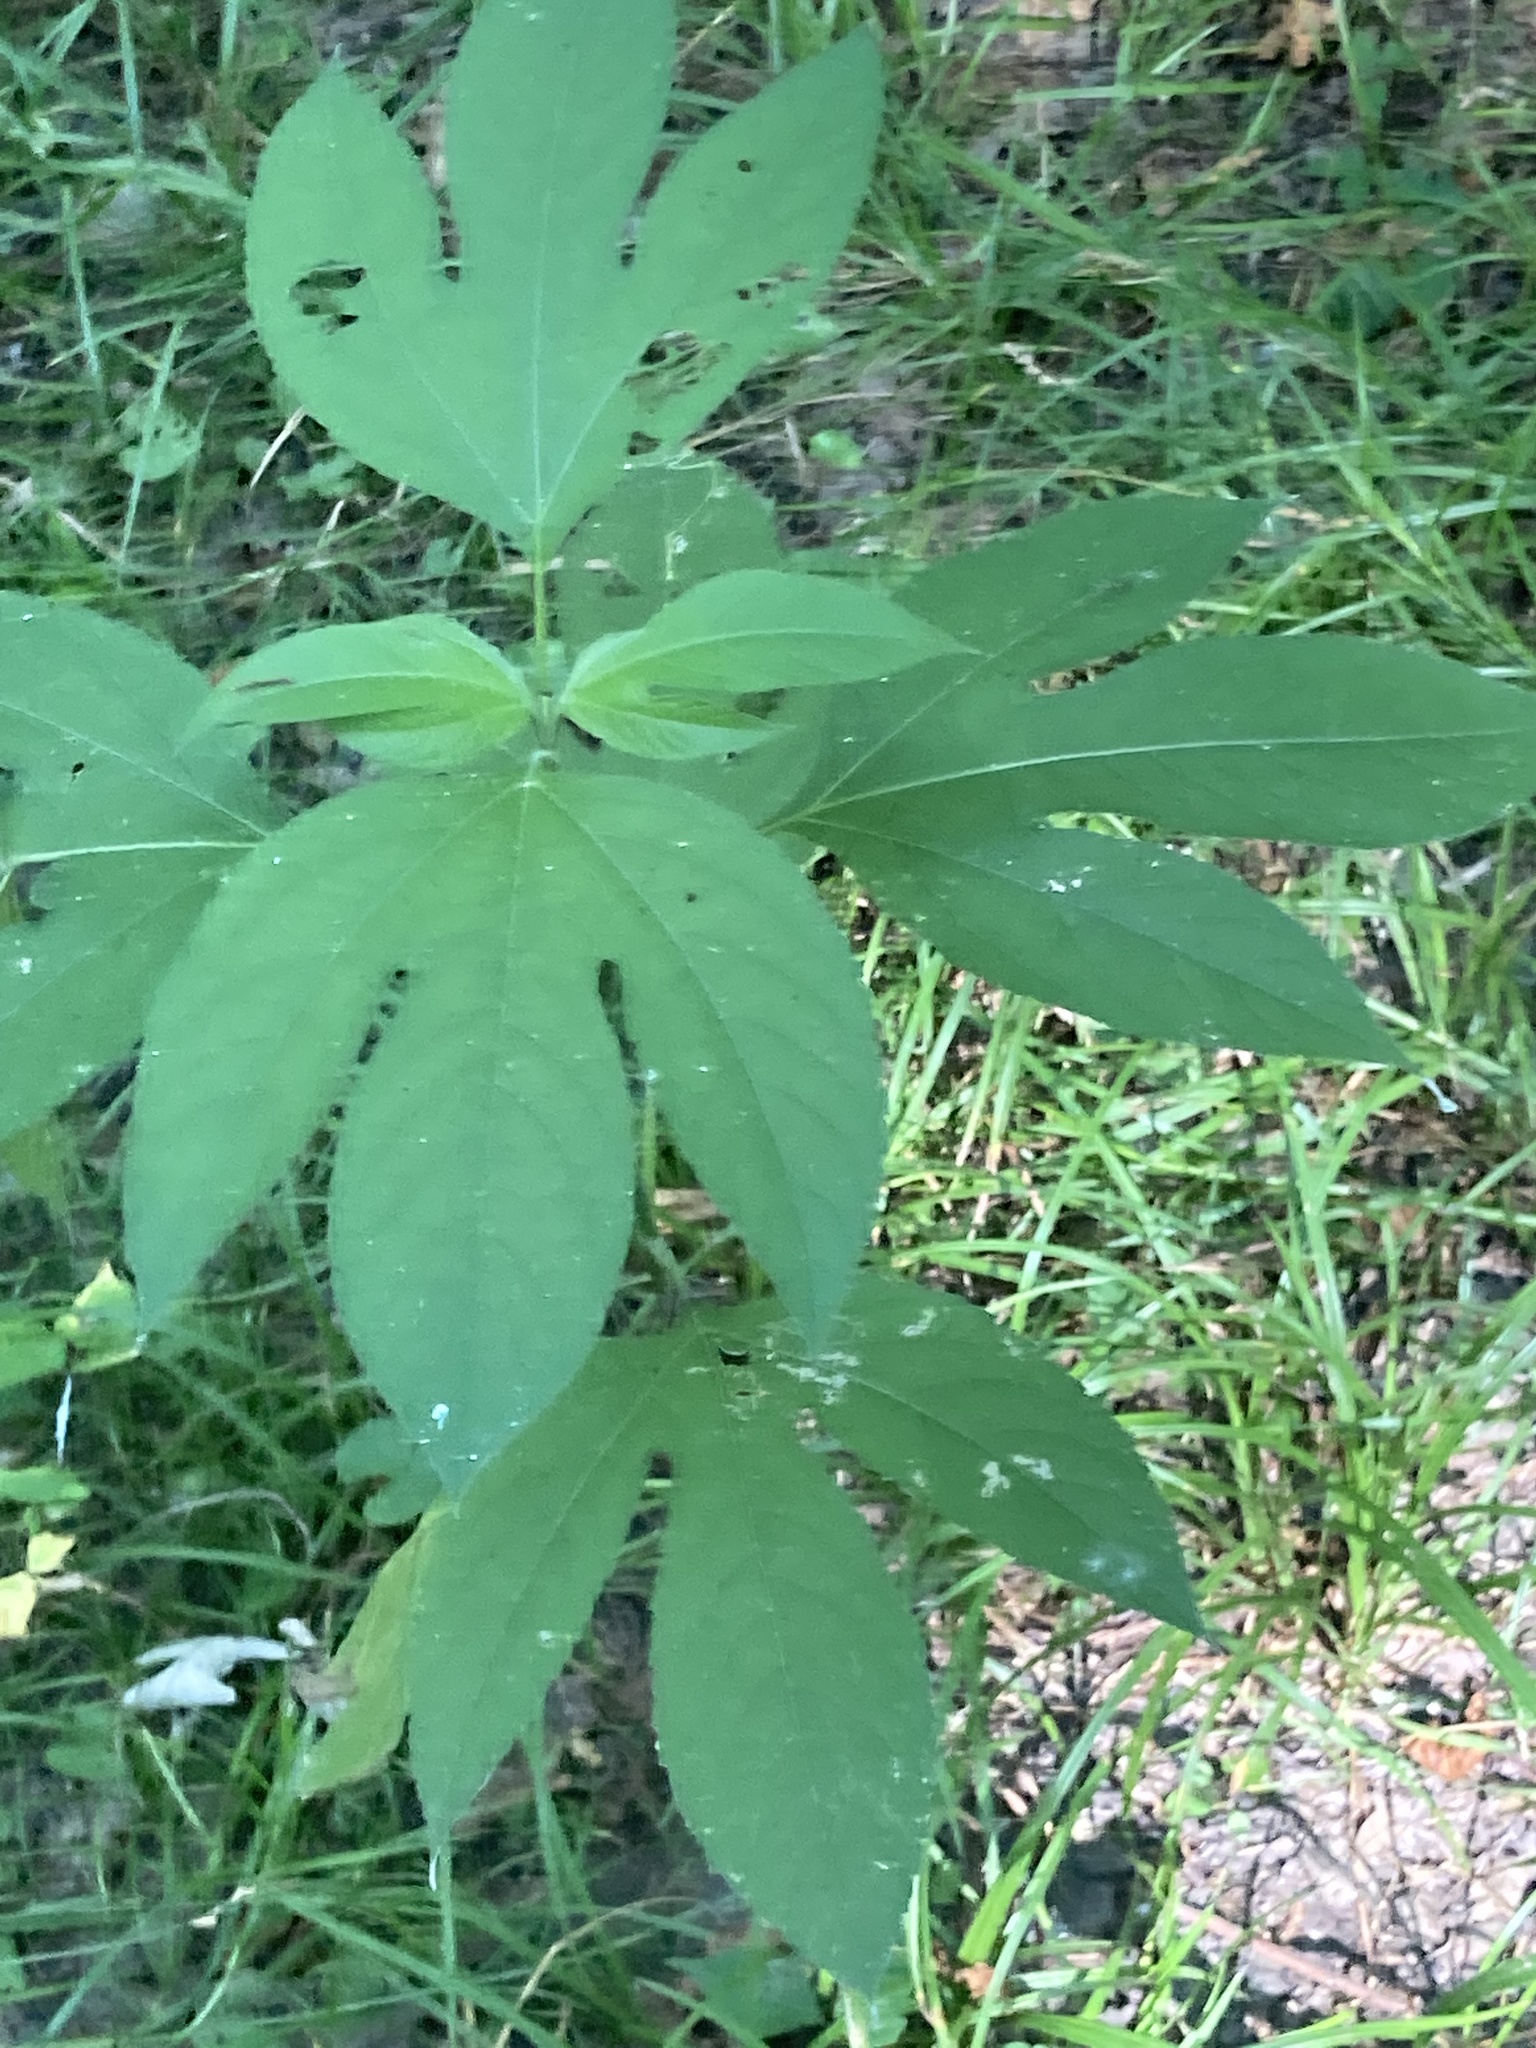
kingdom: Plantae
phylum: Tracheophyta
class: Magnoliopsida
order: Asterales
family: Asteraceae
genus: Ambrosia
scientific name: Ambrosia trifida
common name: Giant ragweed
